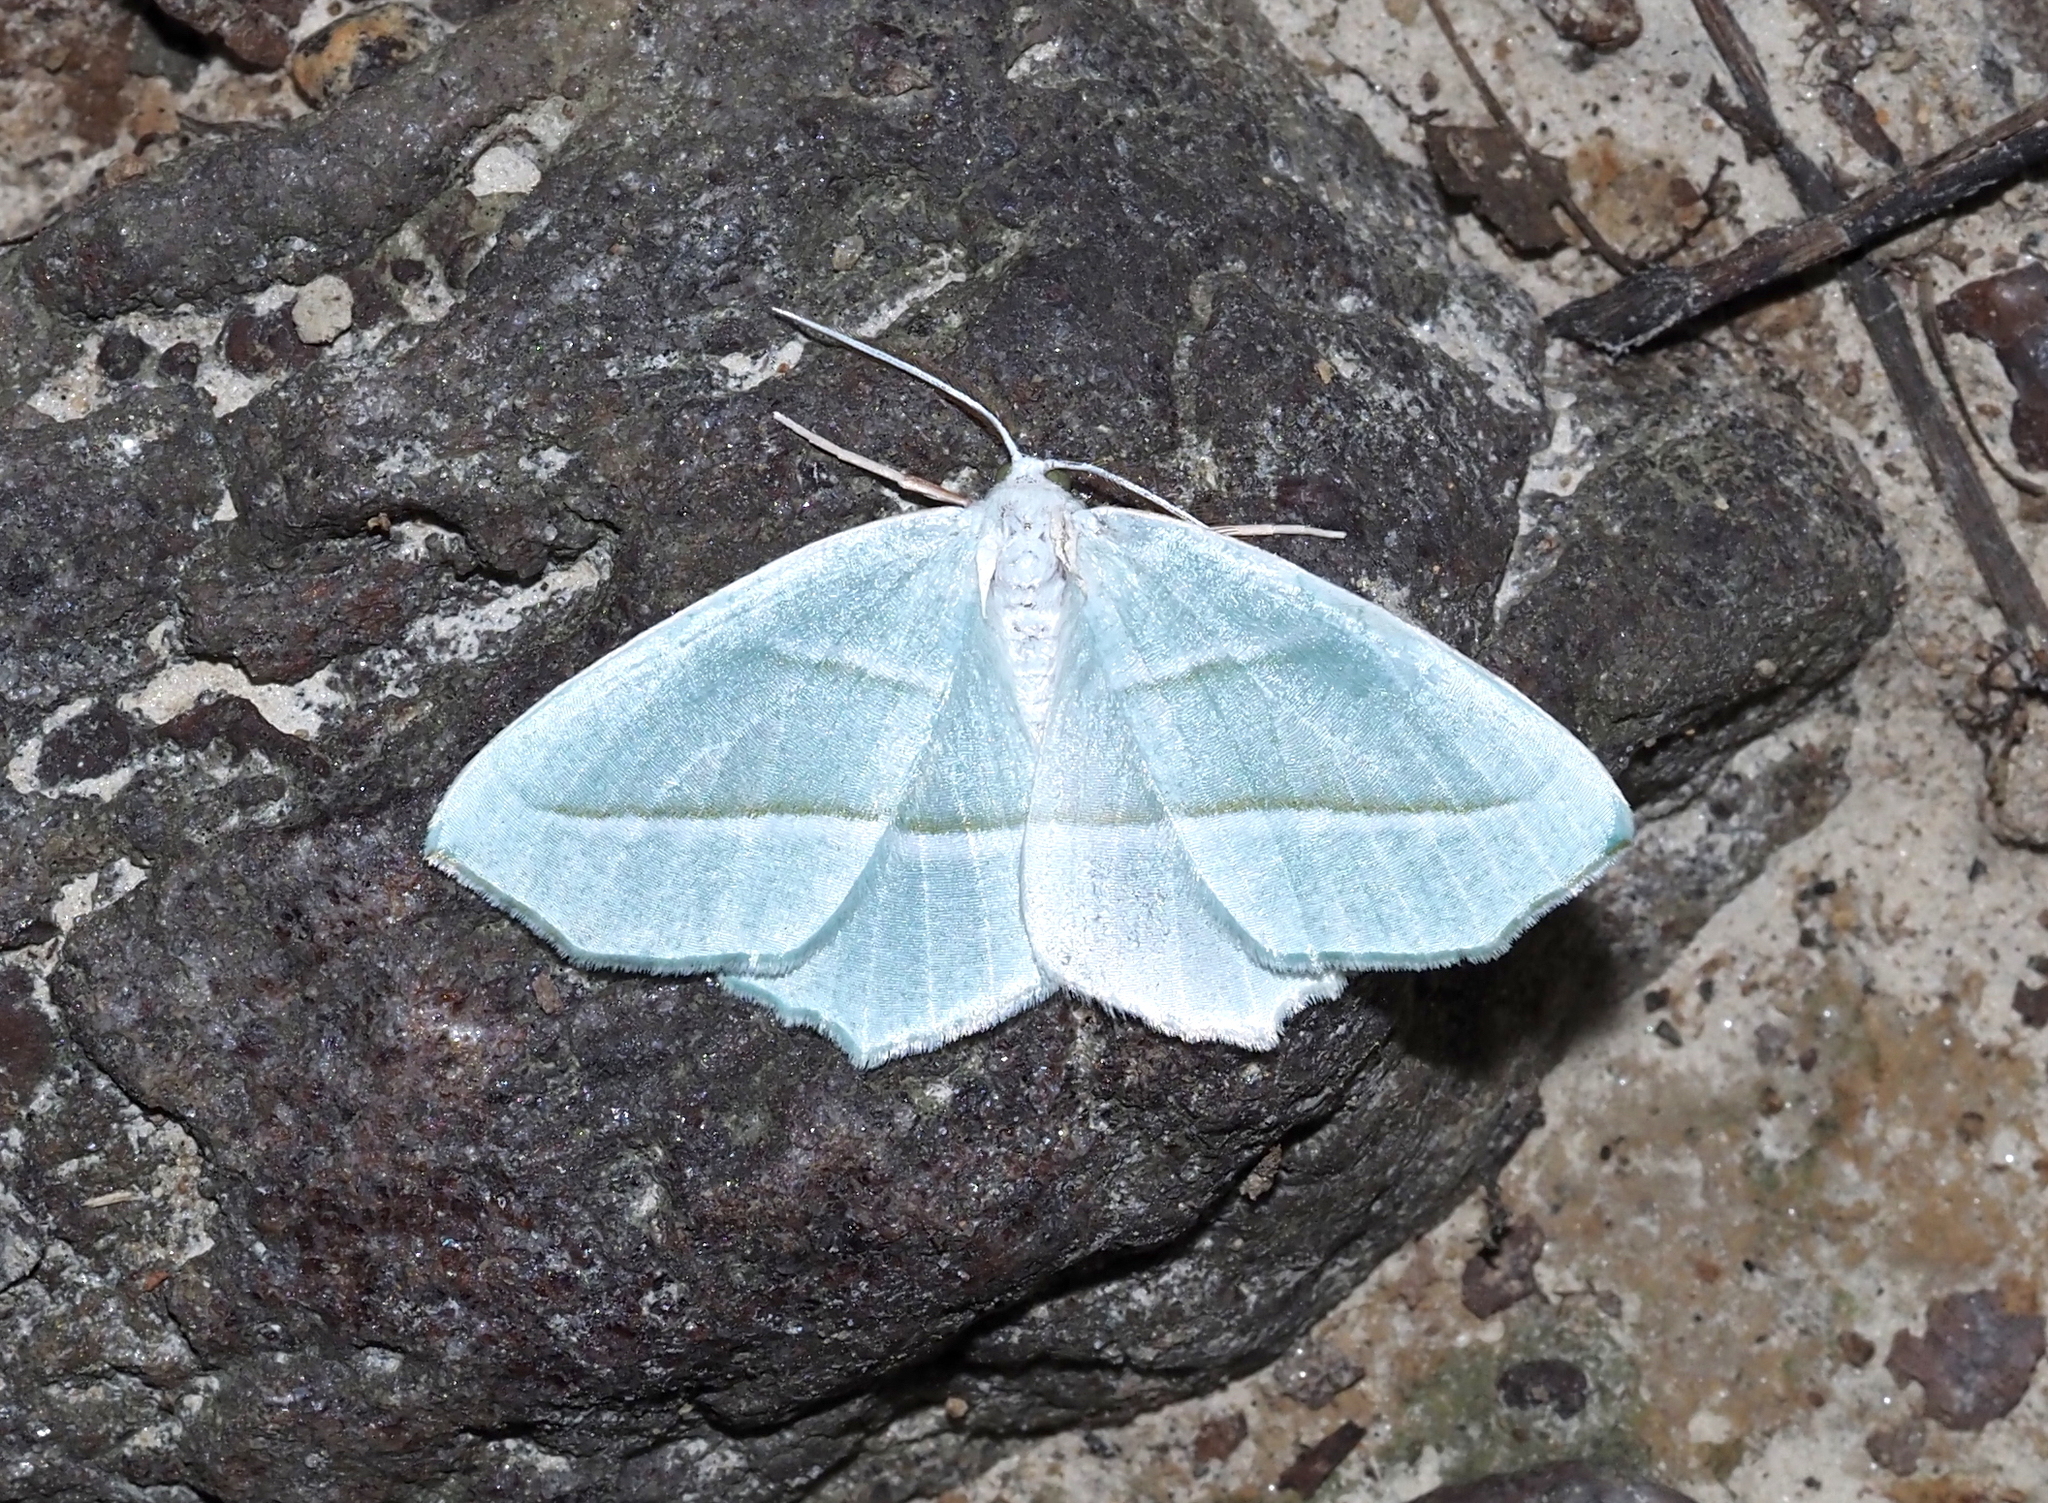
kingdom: Animalia
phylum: Arthropoda
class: Insecta
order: Lepidoptera
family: Geometridae
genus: Campaea
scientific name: Campaea perlata
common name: Fringed looper
